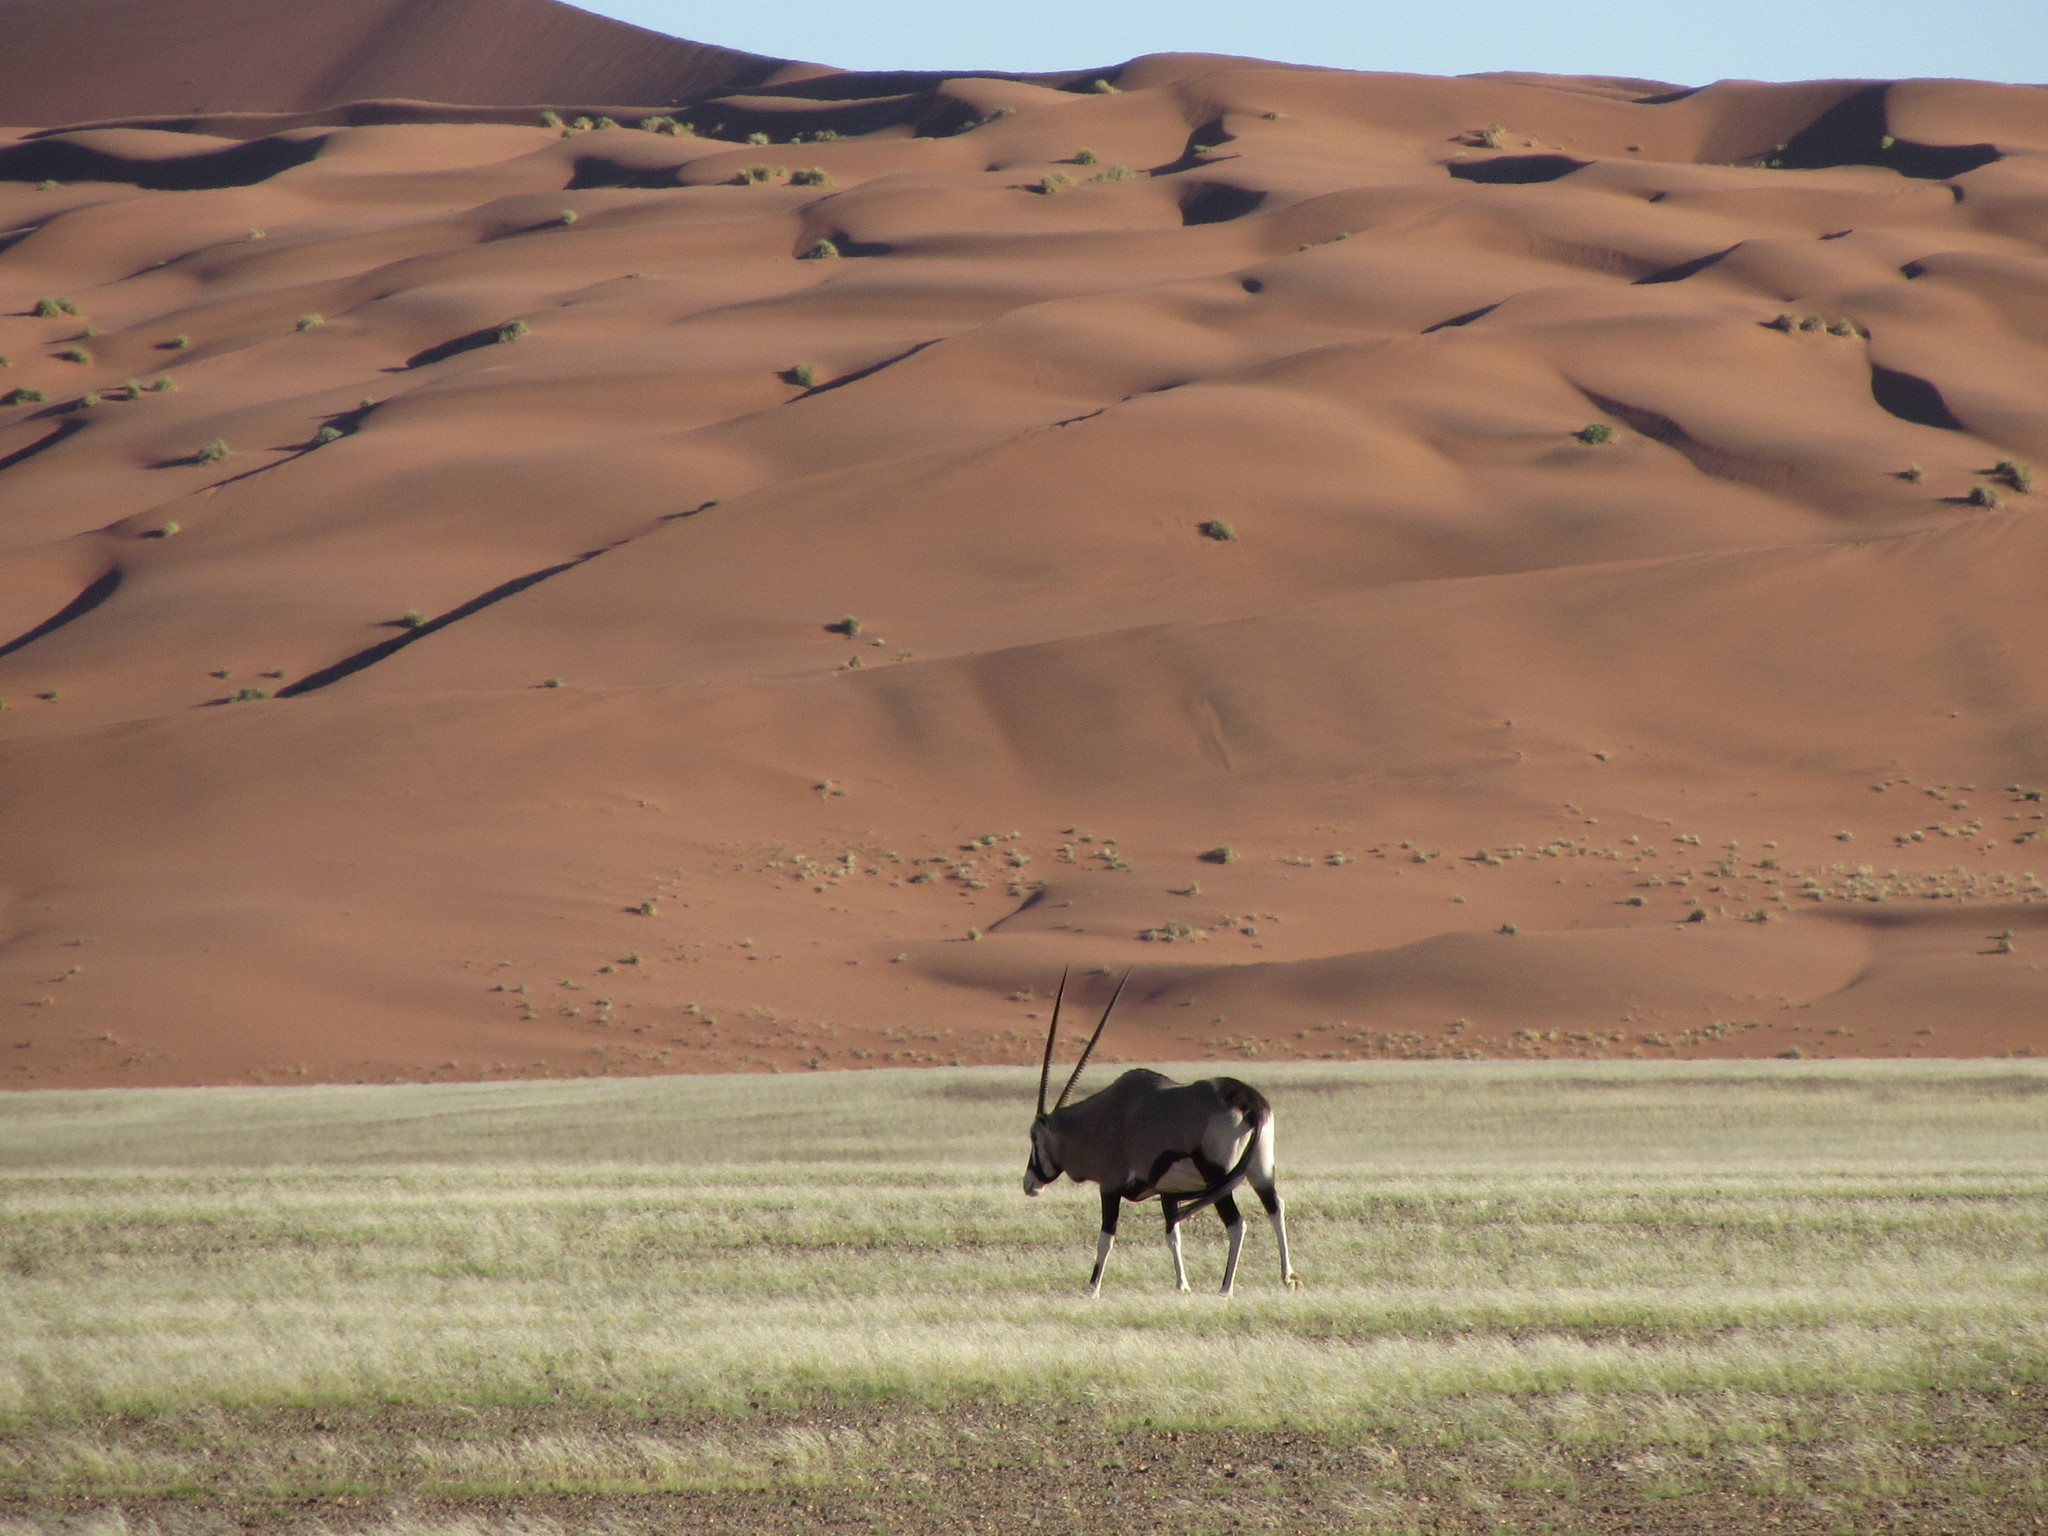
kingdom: Animalia
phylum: Chordata
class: Mammalia
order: Artiodactyla
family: Bovidae
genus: Oryx
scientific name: Oryx gazella
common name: Gemsbok
